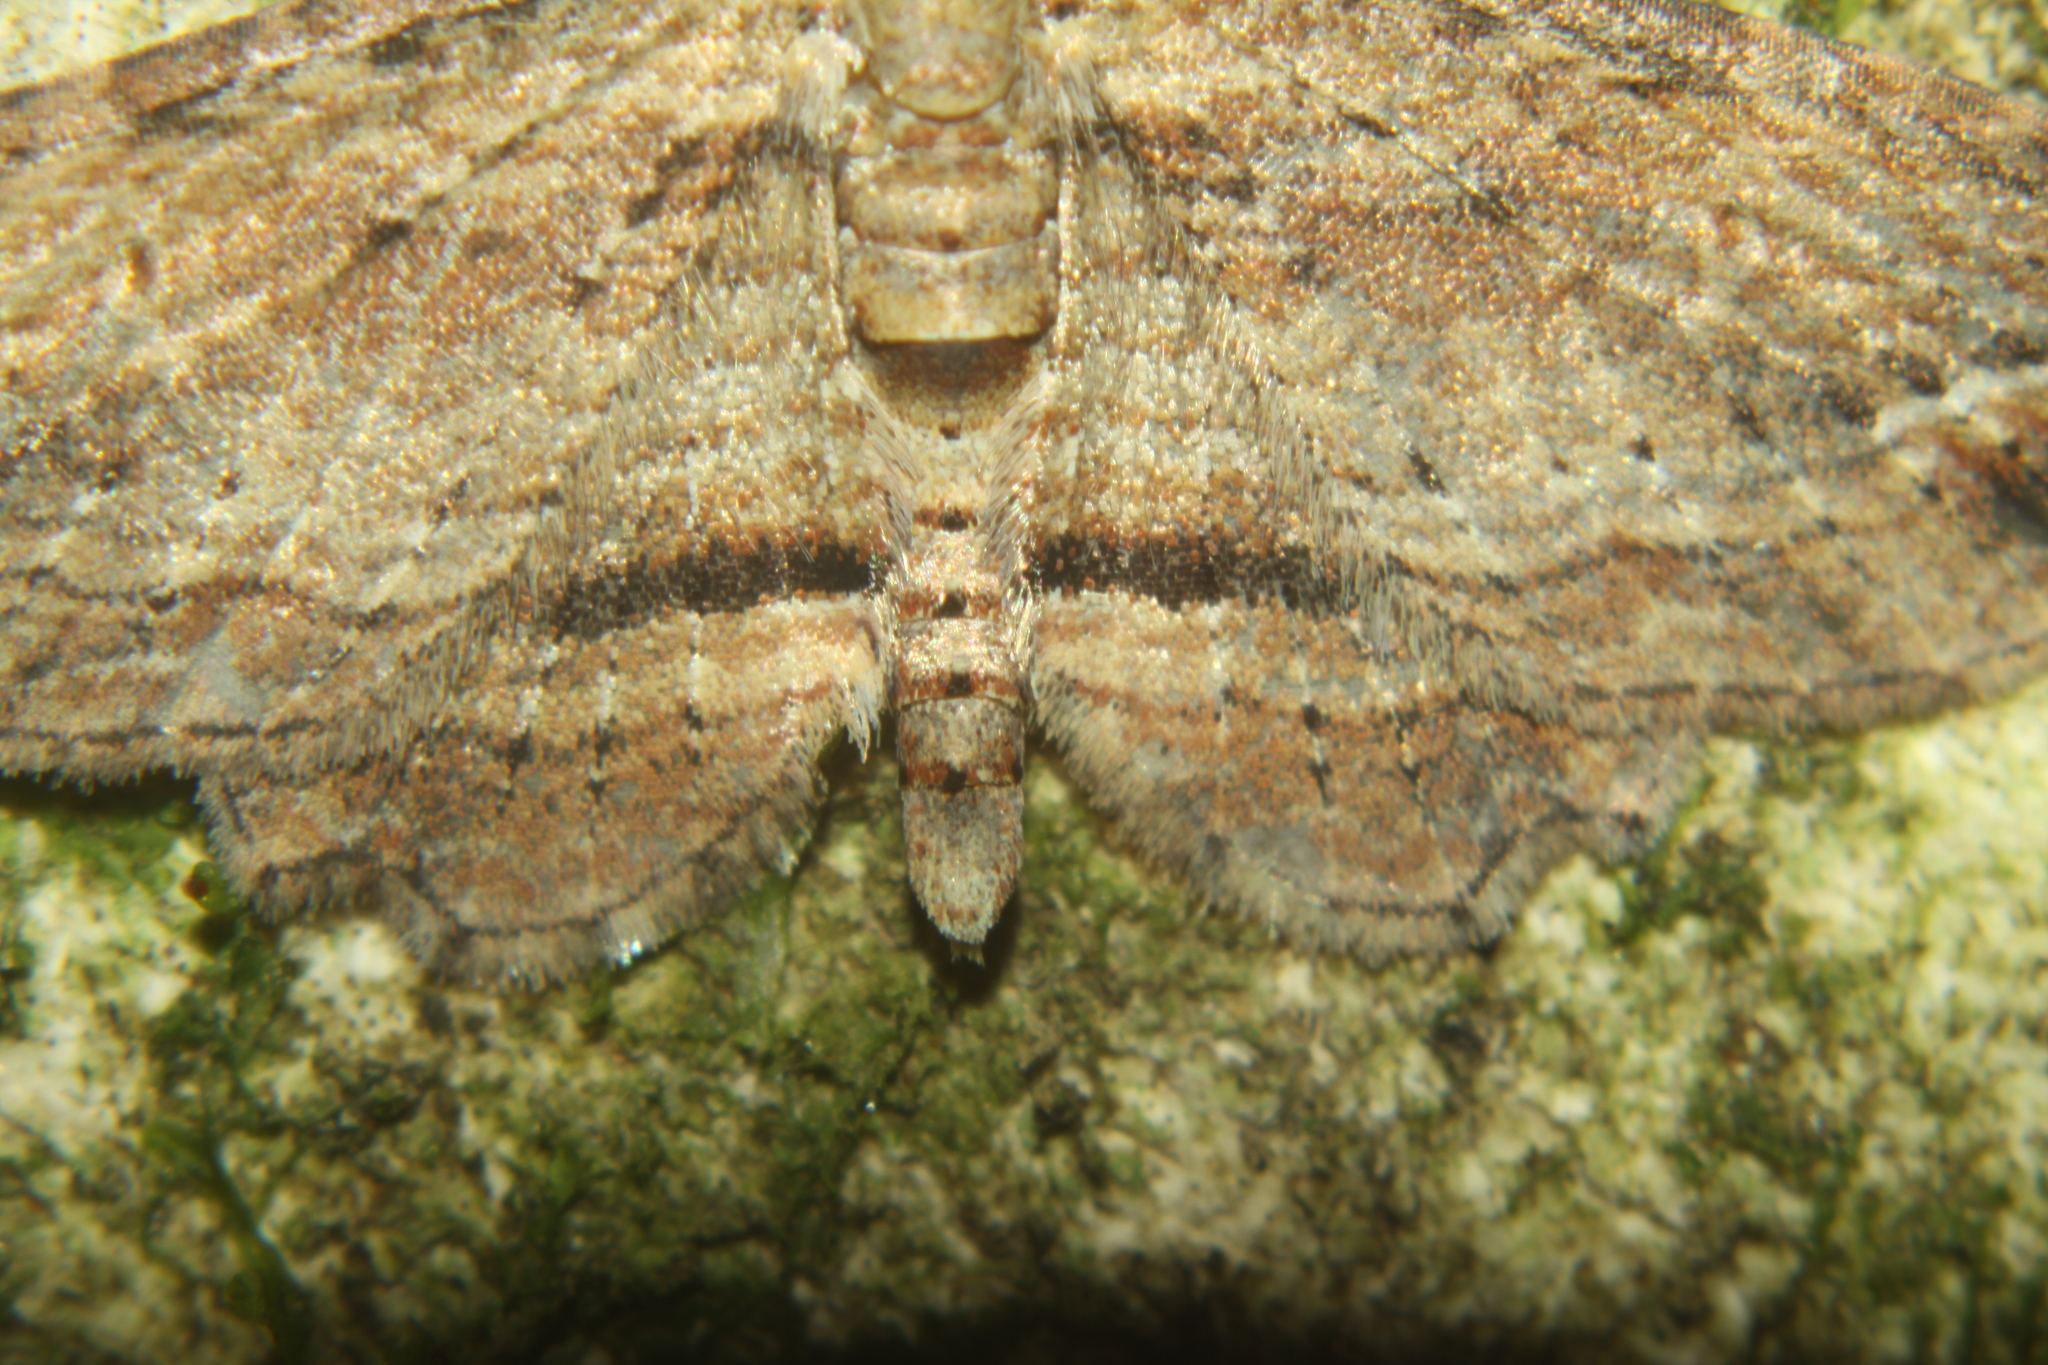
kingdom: Animalia
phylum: Arthropoda
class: Insecta
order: Lepidoptera
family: Geometridae
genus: Chloroclystis
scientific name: Chloroclystis filata
